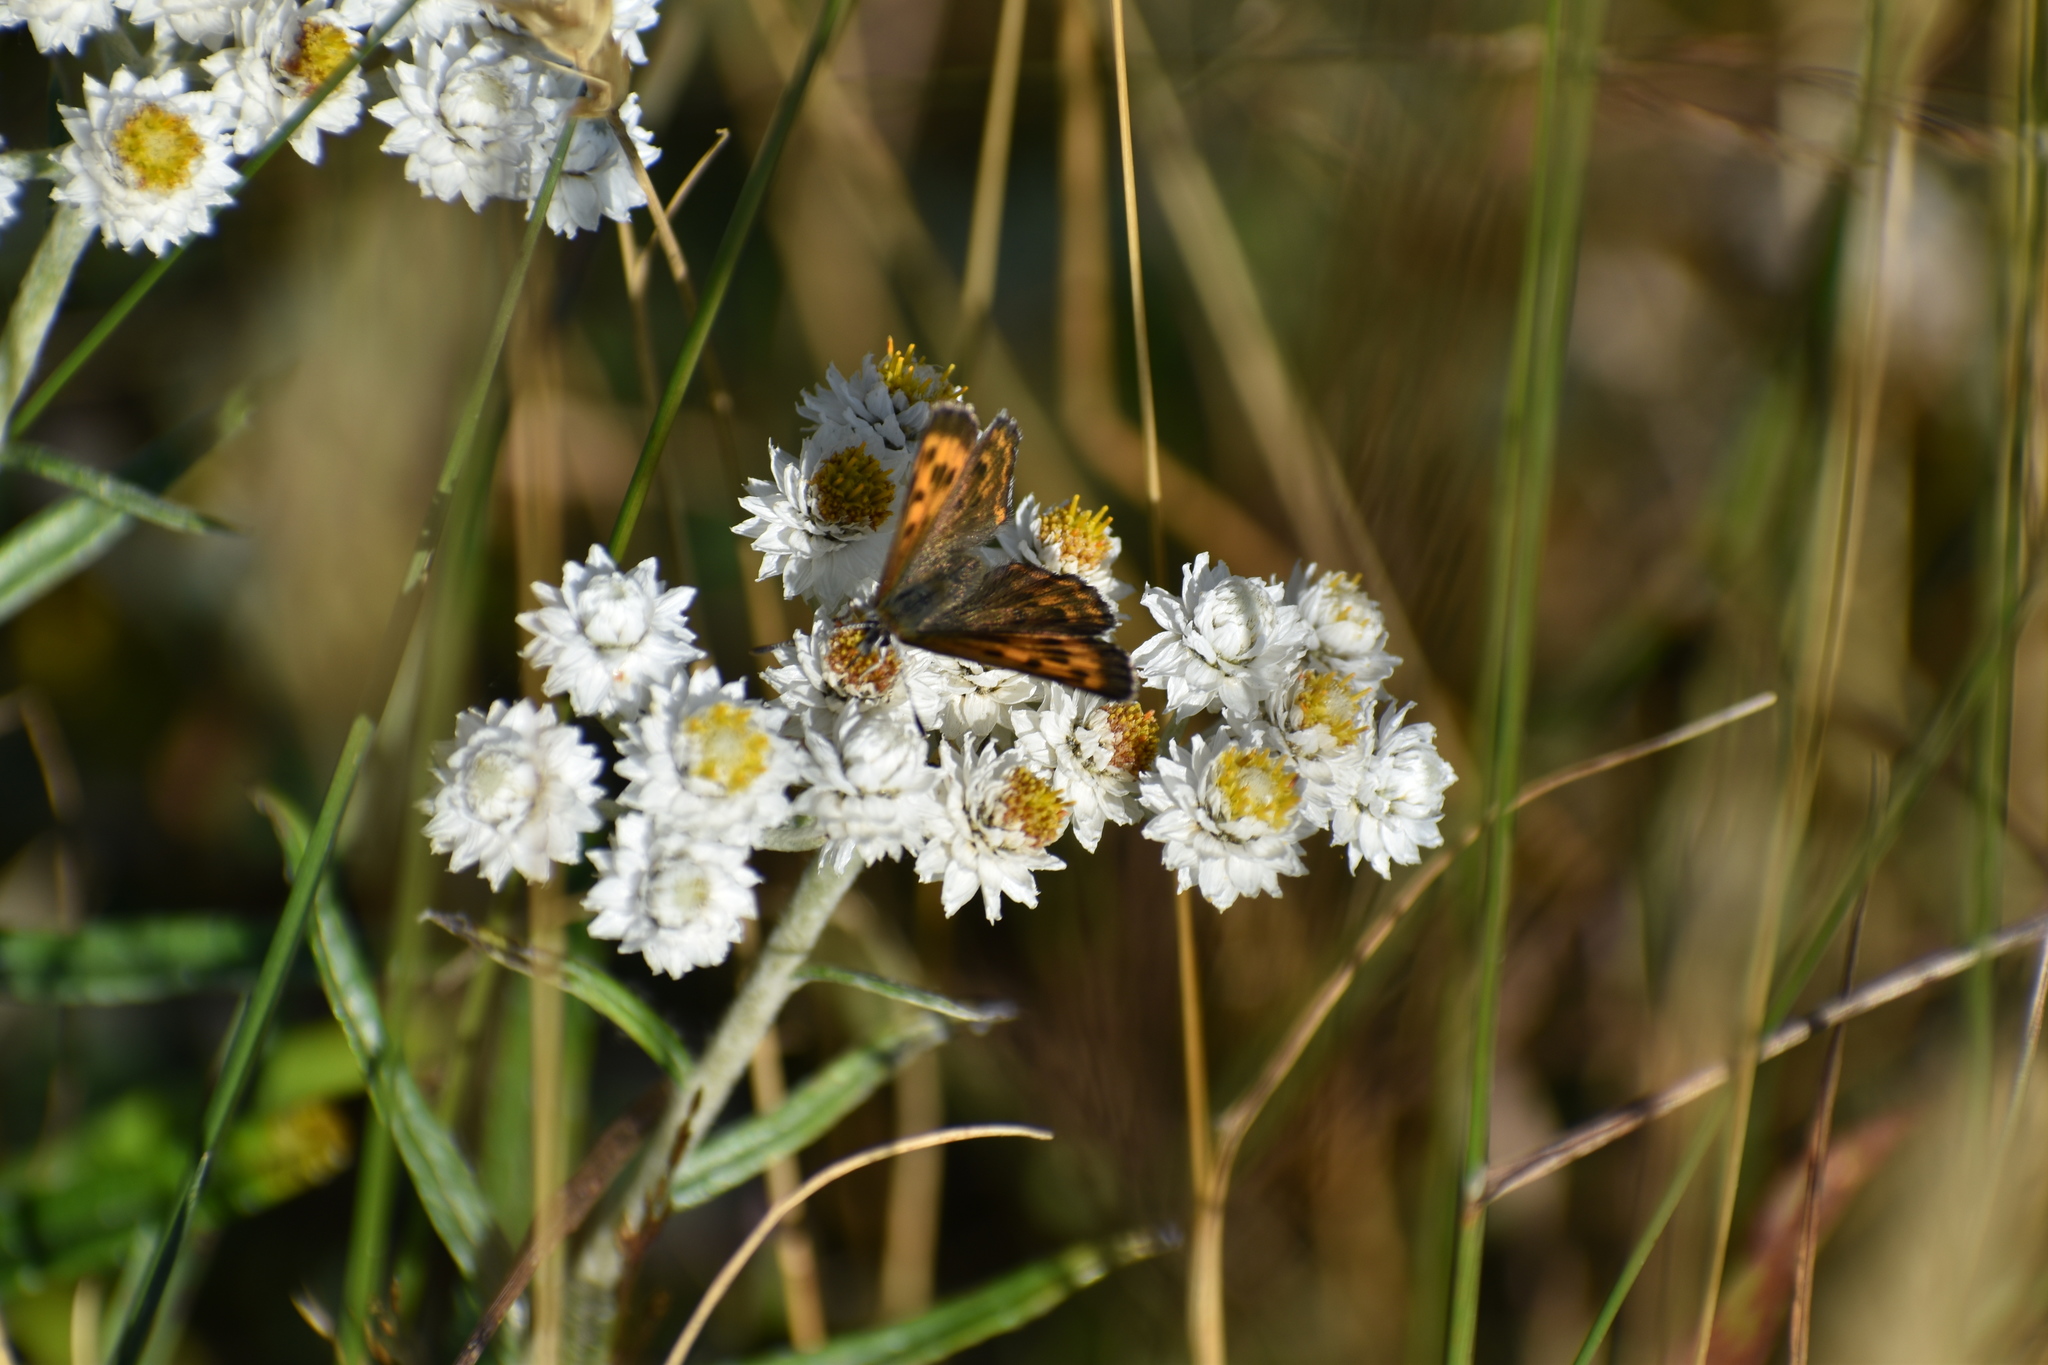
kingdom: Animalia
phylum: Arthropoda
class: Insecta
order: Lepidoptera
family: Lycaenidae
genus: Tharsalea
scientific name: Tharsalea mariposa
